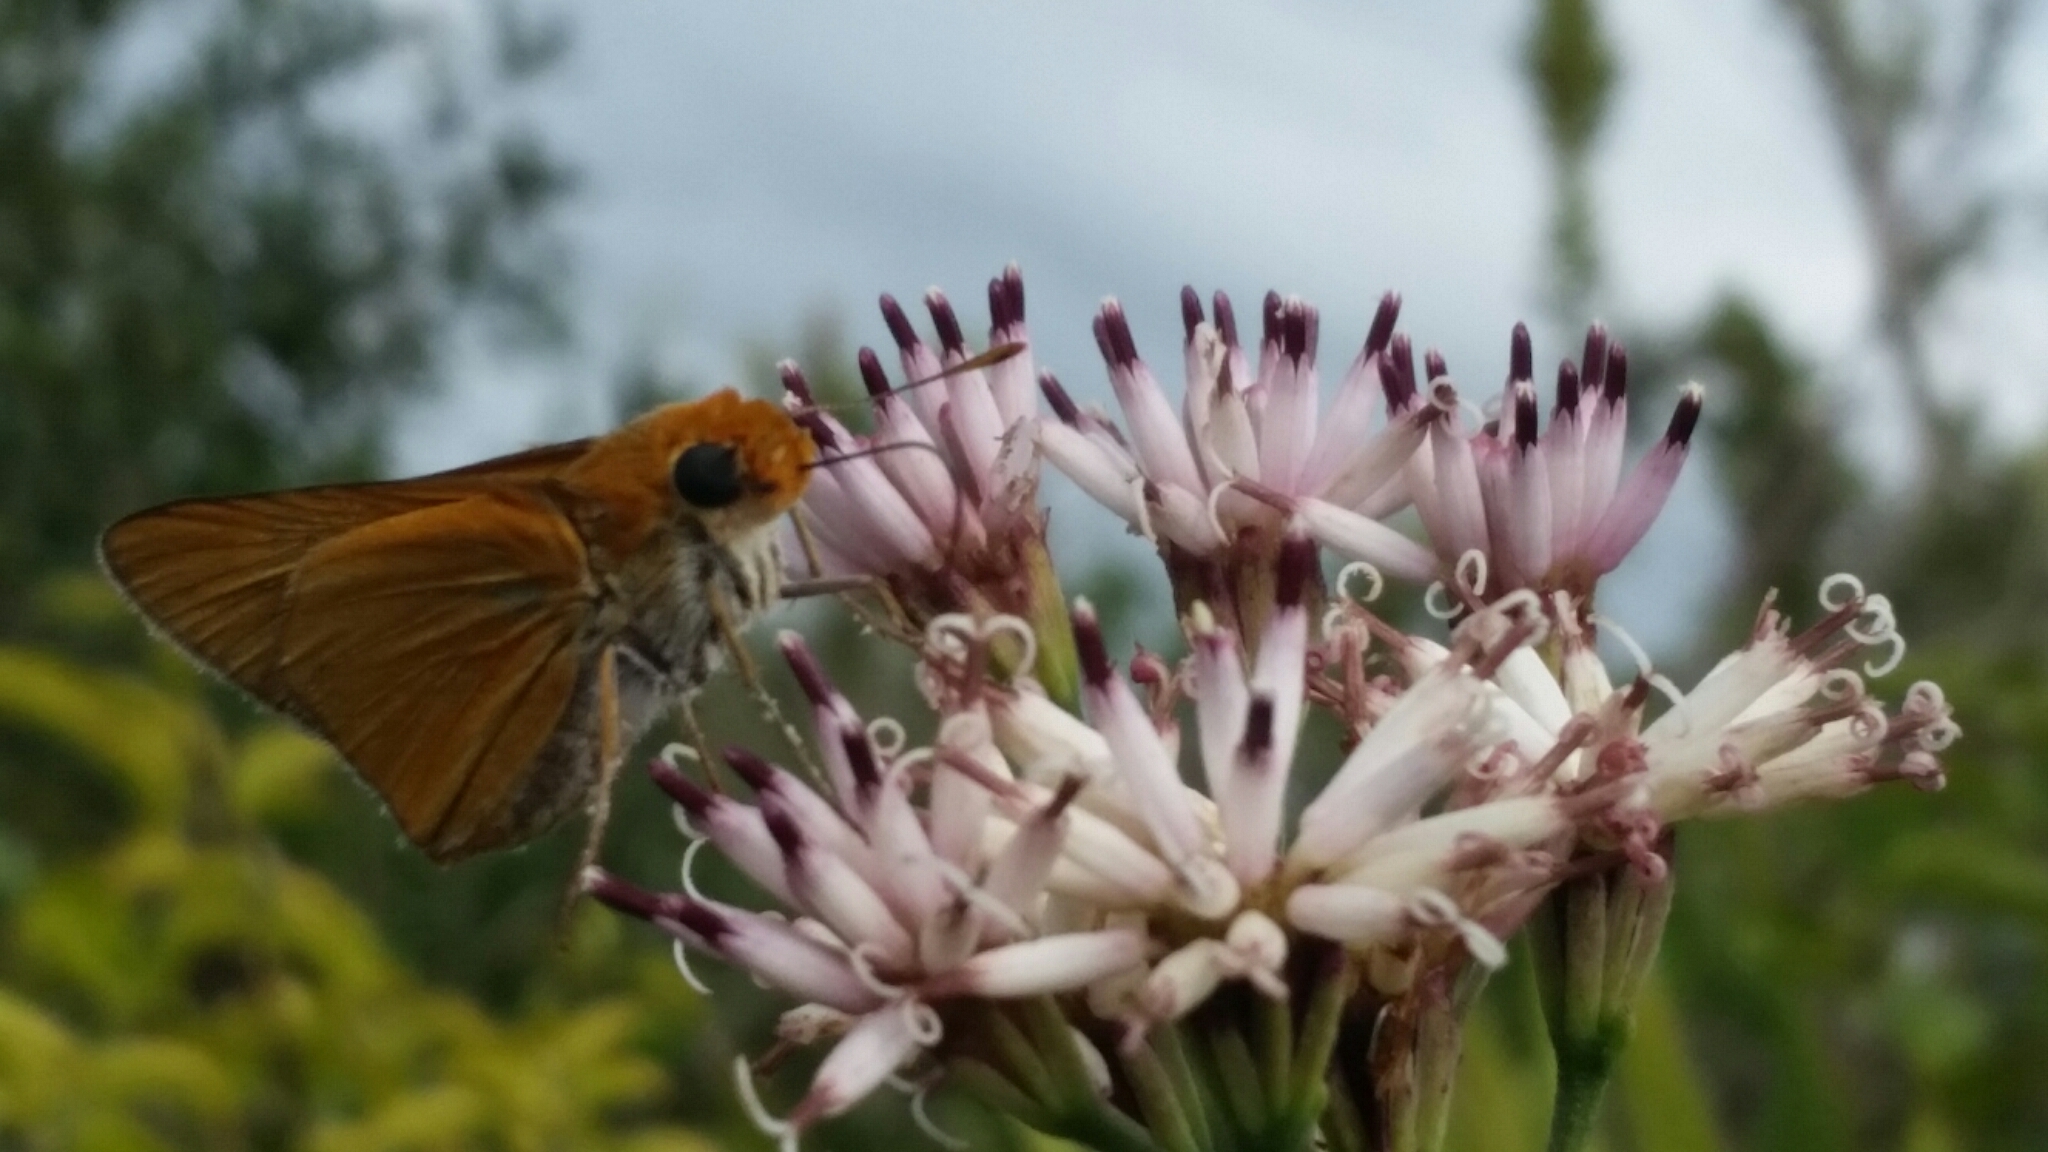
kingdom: Animalia
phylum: Arthropoda
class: Insecta
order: Lepidoptera
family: Hesperiidae
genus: Euphyes
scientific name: Euphyes arpa
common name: Palmetto skipper
